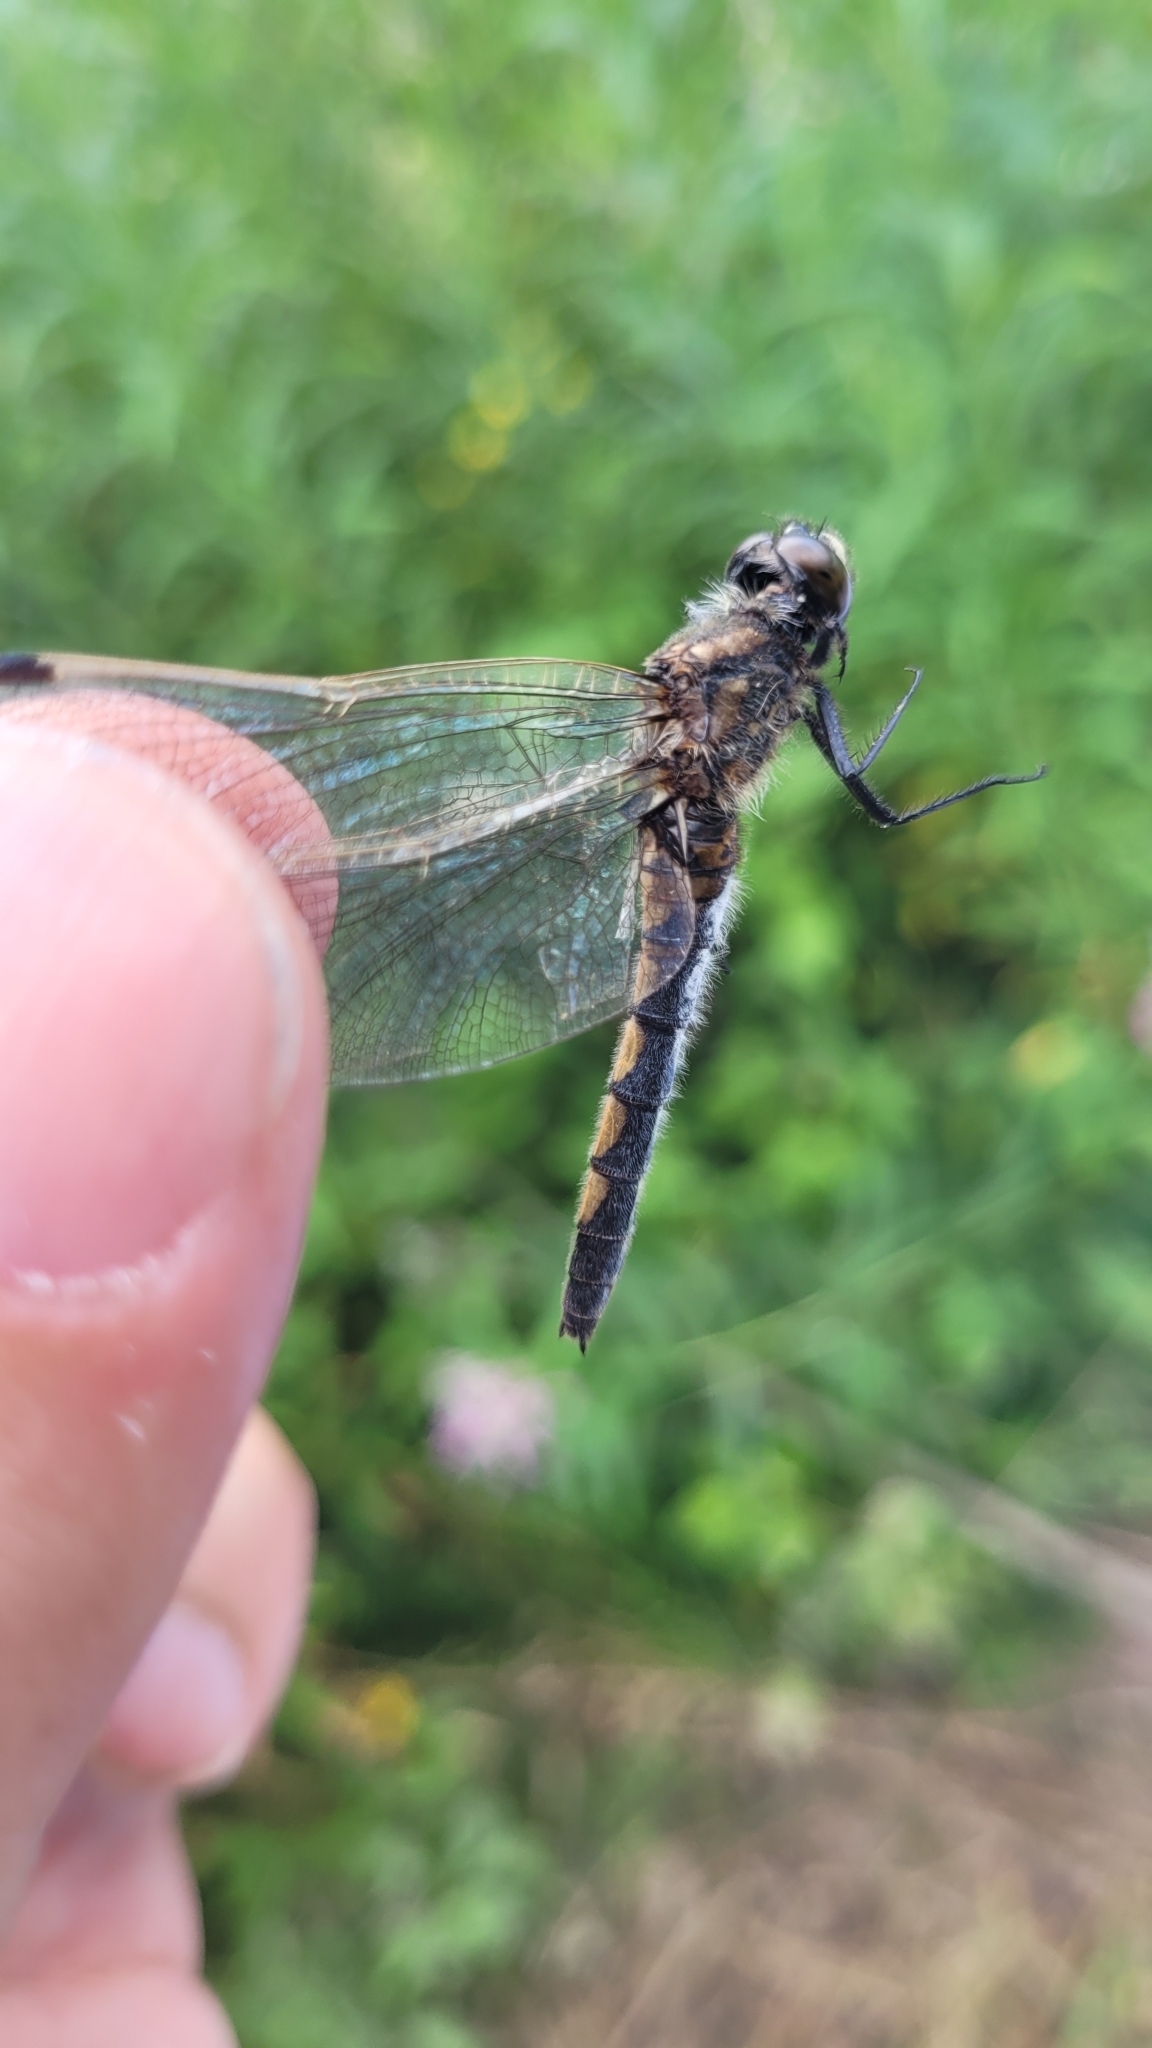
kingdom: Animalia
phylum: Arthropoda
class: Insecta
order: Odonata
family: Libellulidae
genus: Leucorrhinia
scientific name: Leucorrhinia rubicunda
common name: Ruby whiteface
